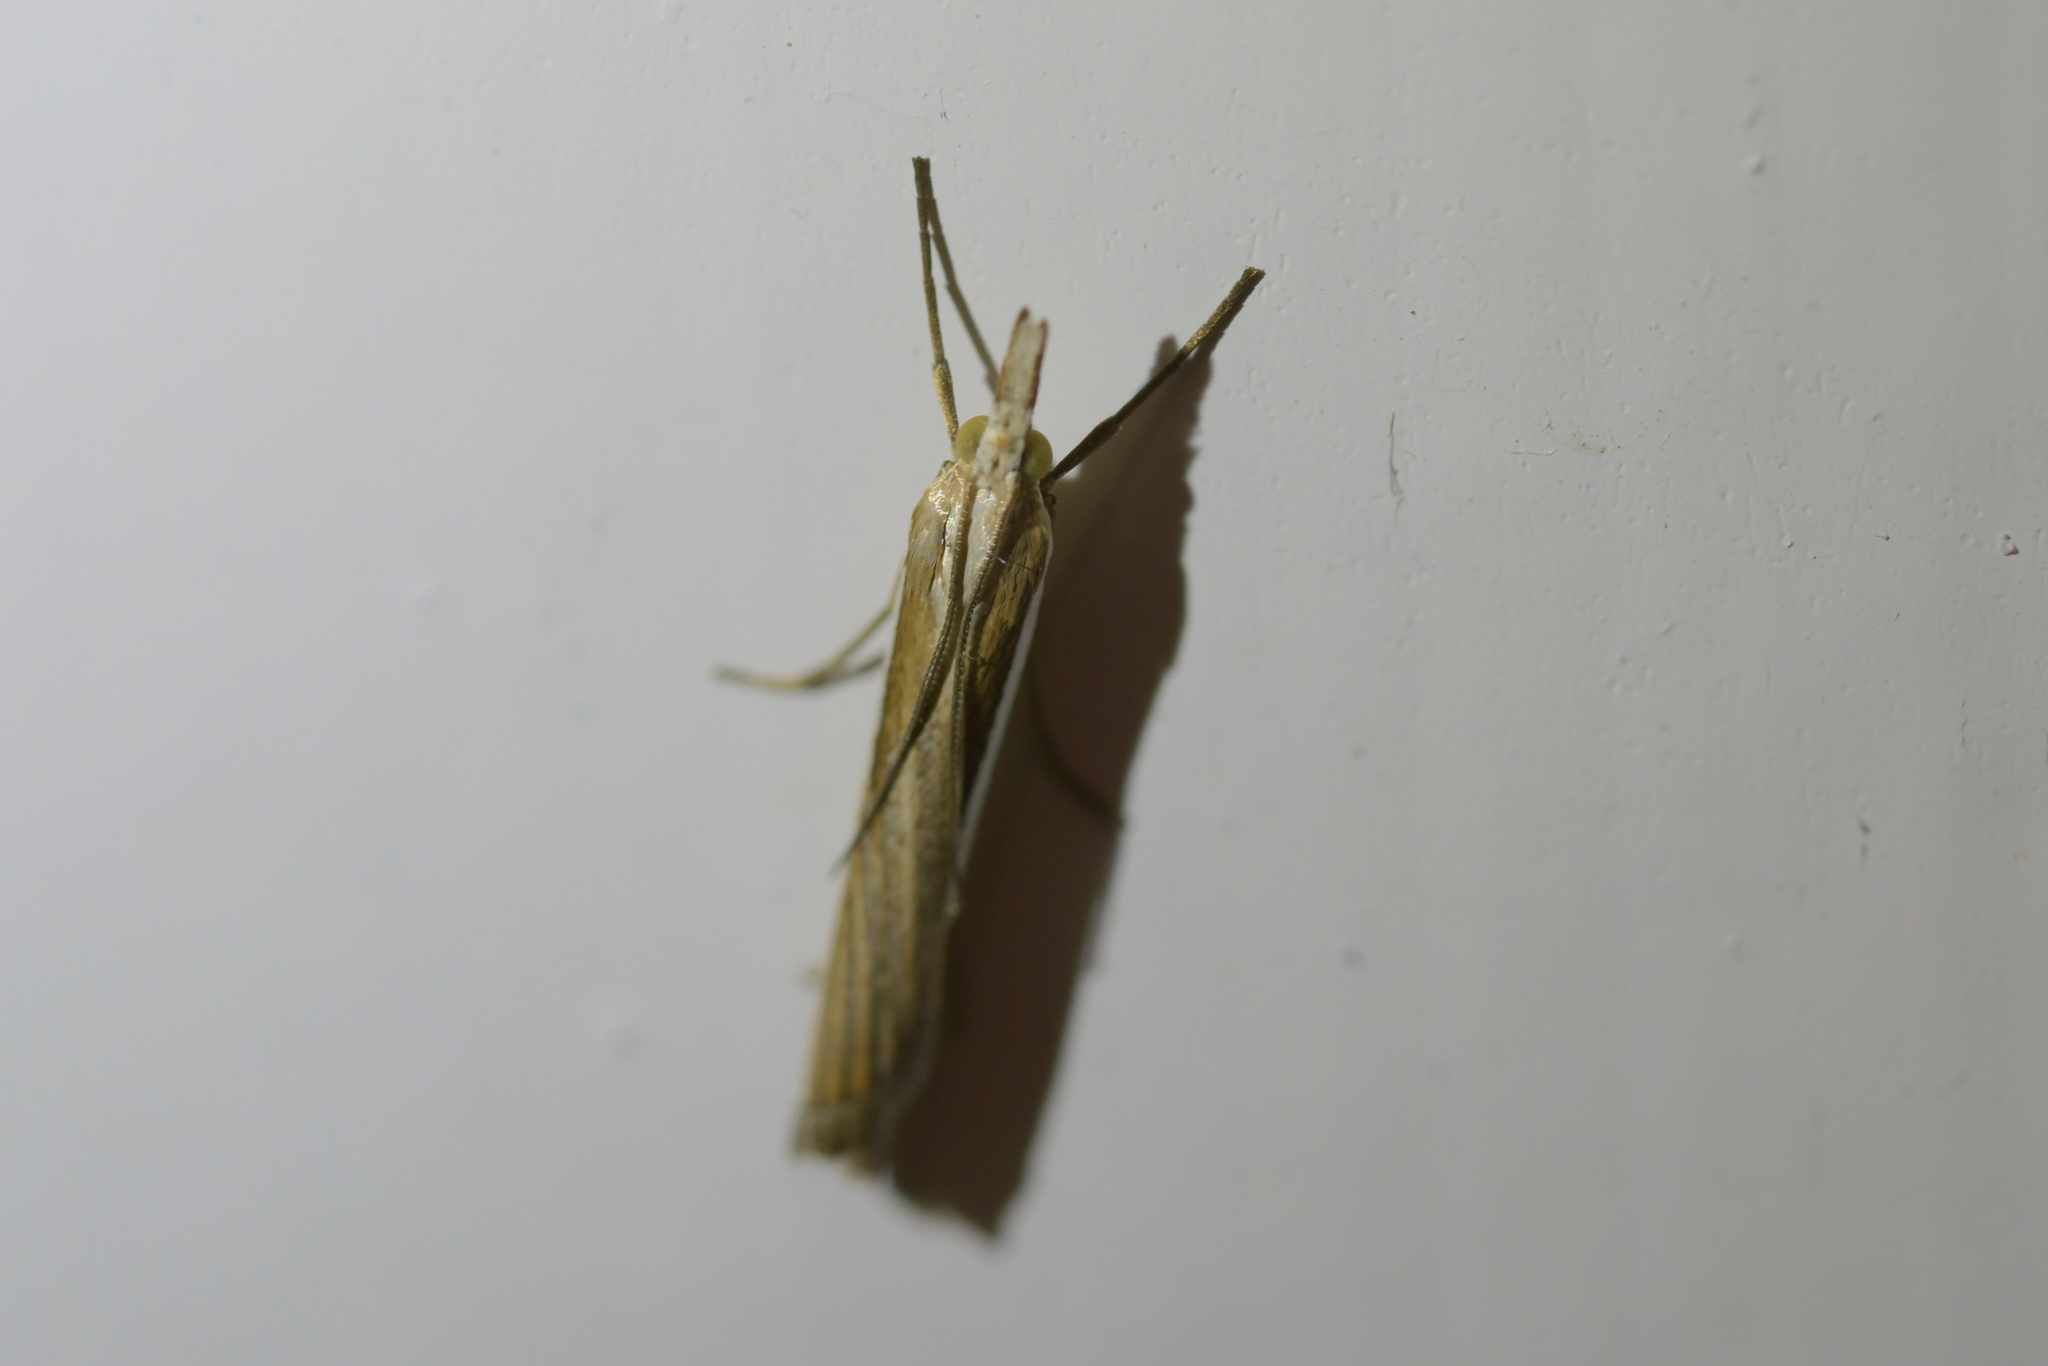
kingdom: Animalia
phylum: Arthropoda
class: Insecta
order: Lepidoptera
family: Crambidae
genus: Orocrambus
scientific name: Orocrambus vittellus
